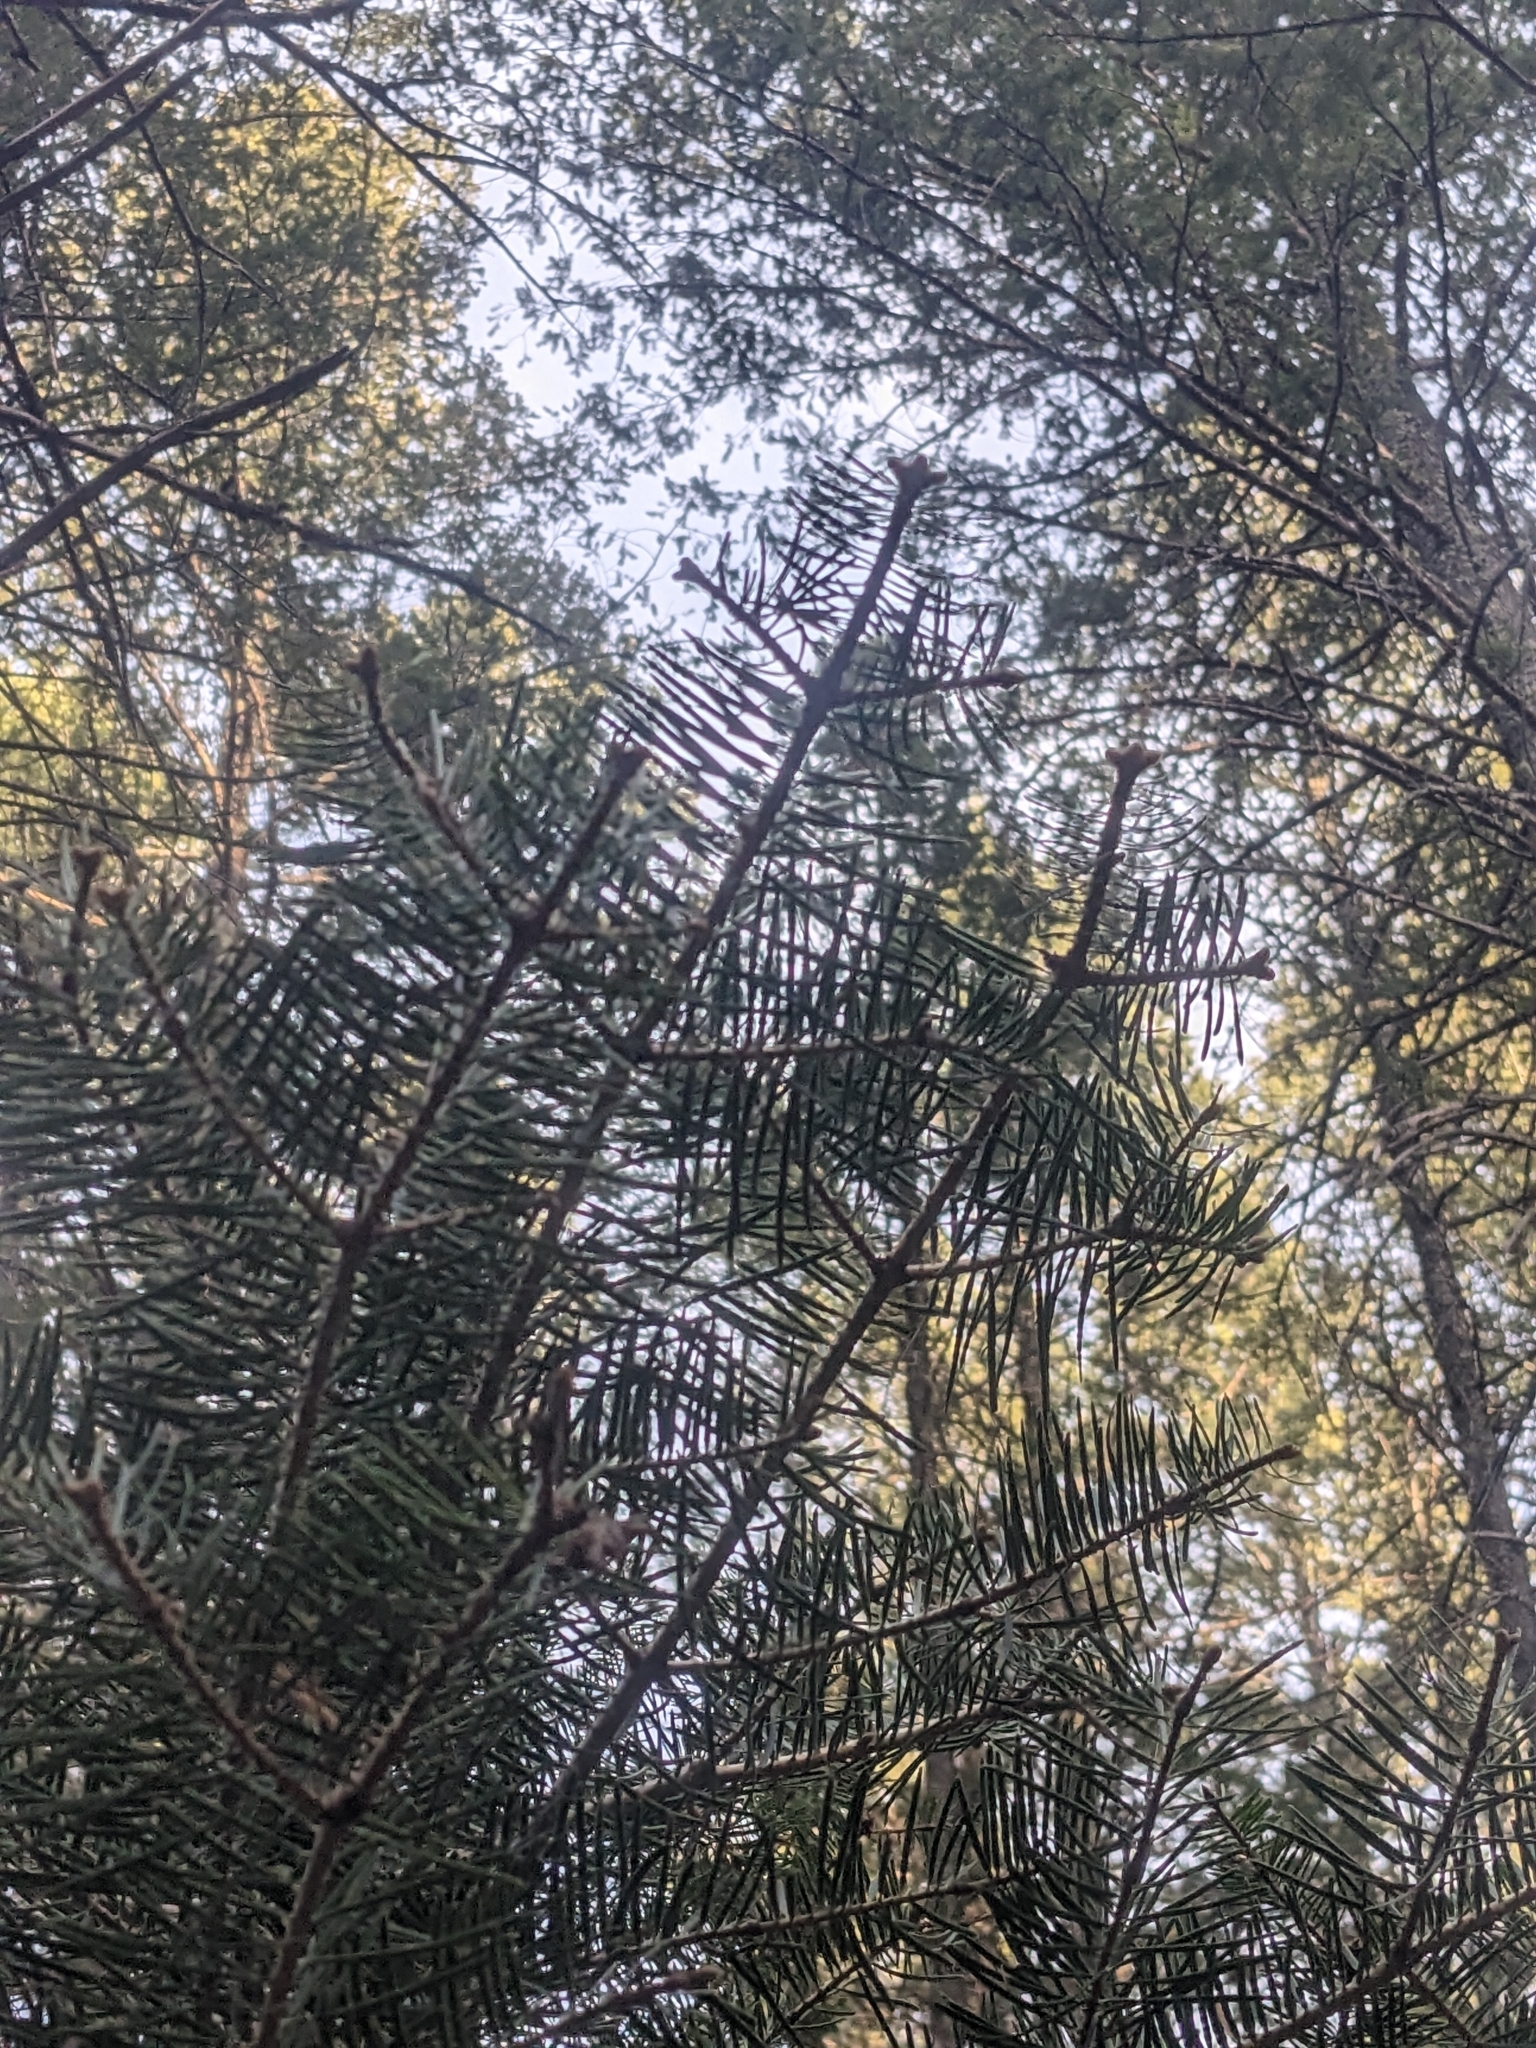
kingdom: Plantae
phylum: Tracheophyta
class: Pinopsida
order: Pinales
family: Pinaceae
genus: Abies
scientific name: Abies concolor
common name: Colorado fir
